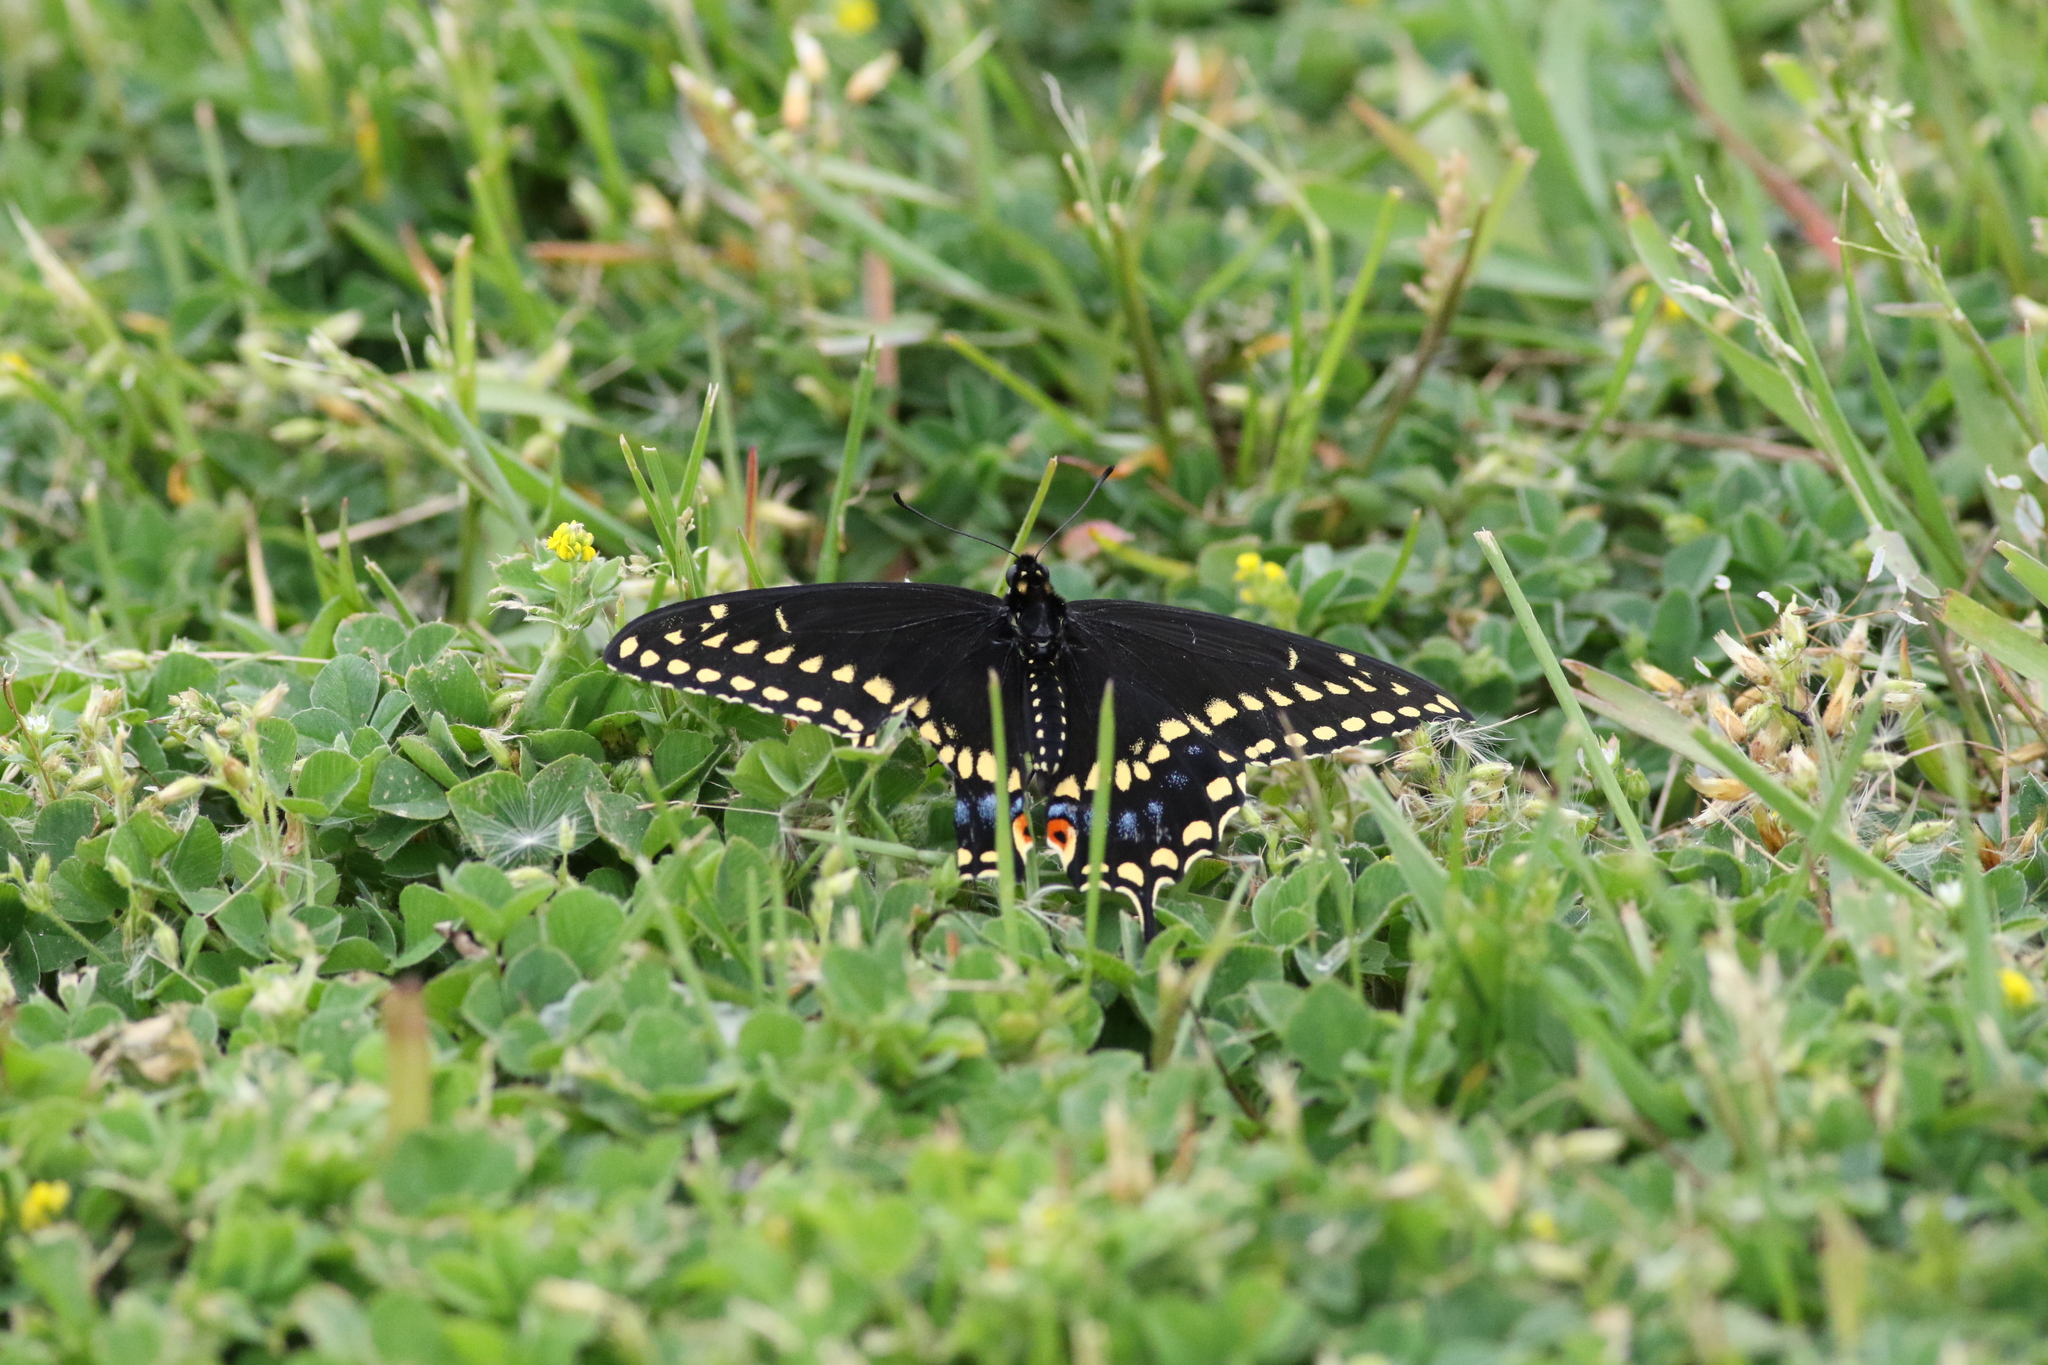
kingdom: Animalia
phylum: Arthropoda
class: Insecta
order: Lepidoptera
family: Papilionidae
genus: Papilio
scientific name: Papilio polyxenes
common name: Black swallowtail
